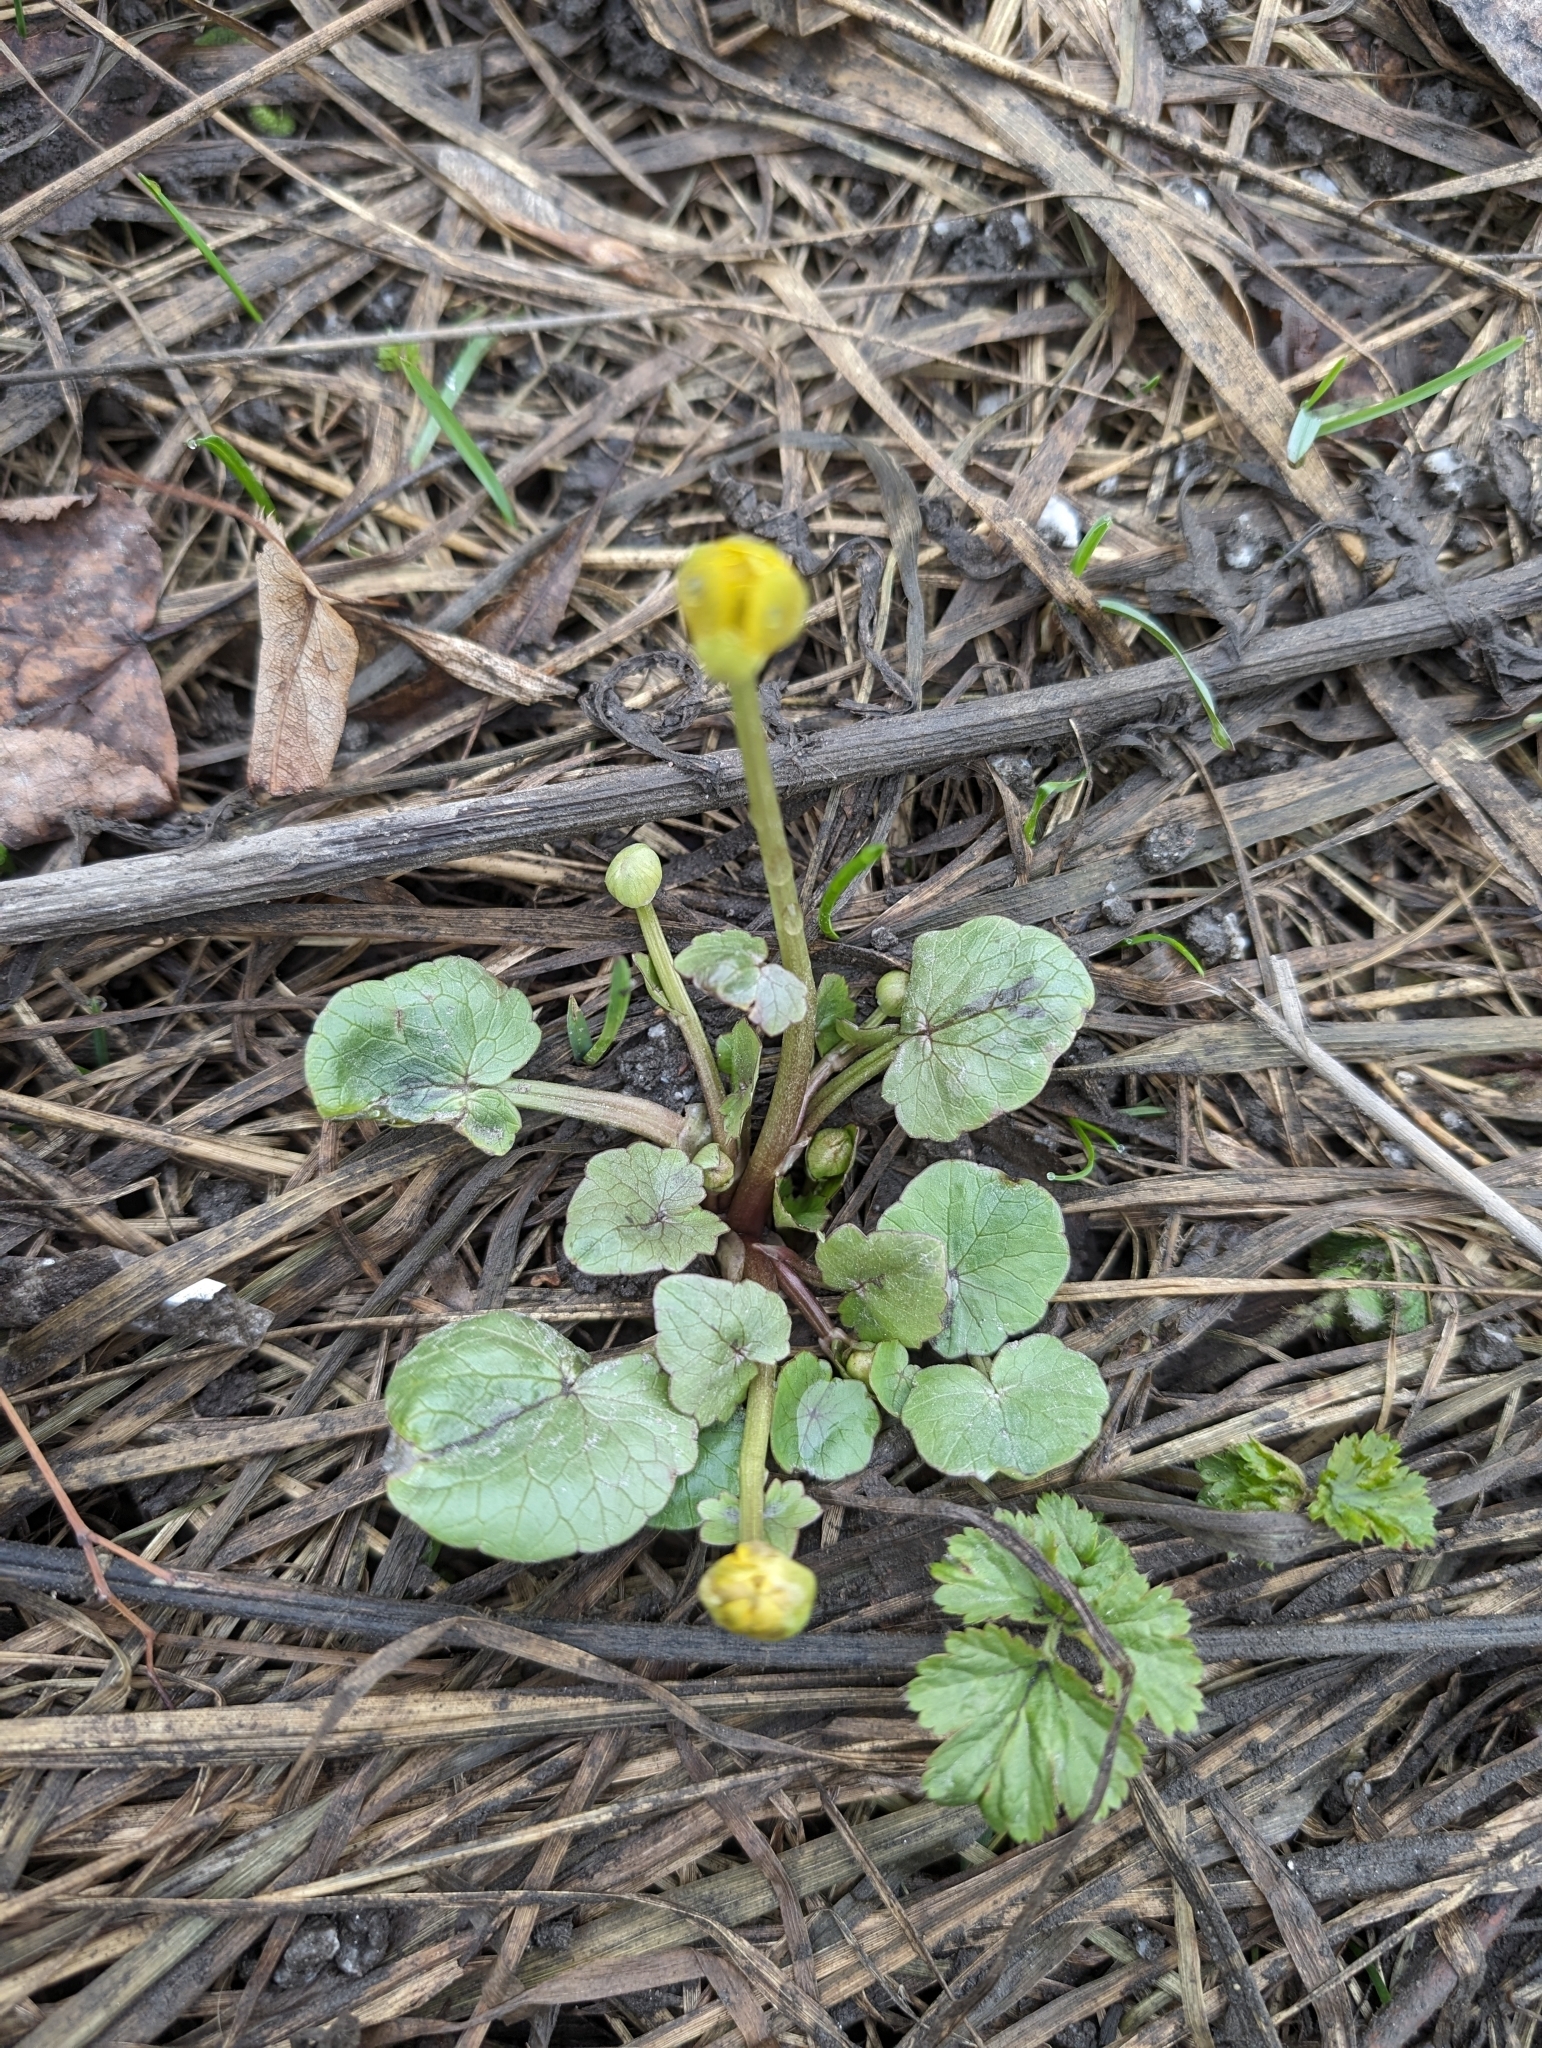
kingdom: Plantae
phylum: Tracheophyta
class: Magnoliopsida
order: Ranunculales
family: Ranunculaceae
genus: Ficaria
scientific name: Ficaria verna
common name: Lesser celandine
